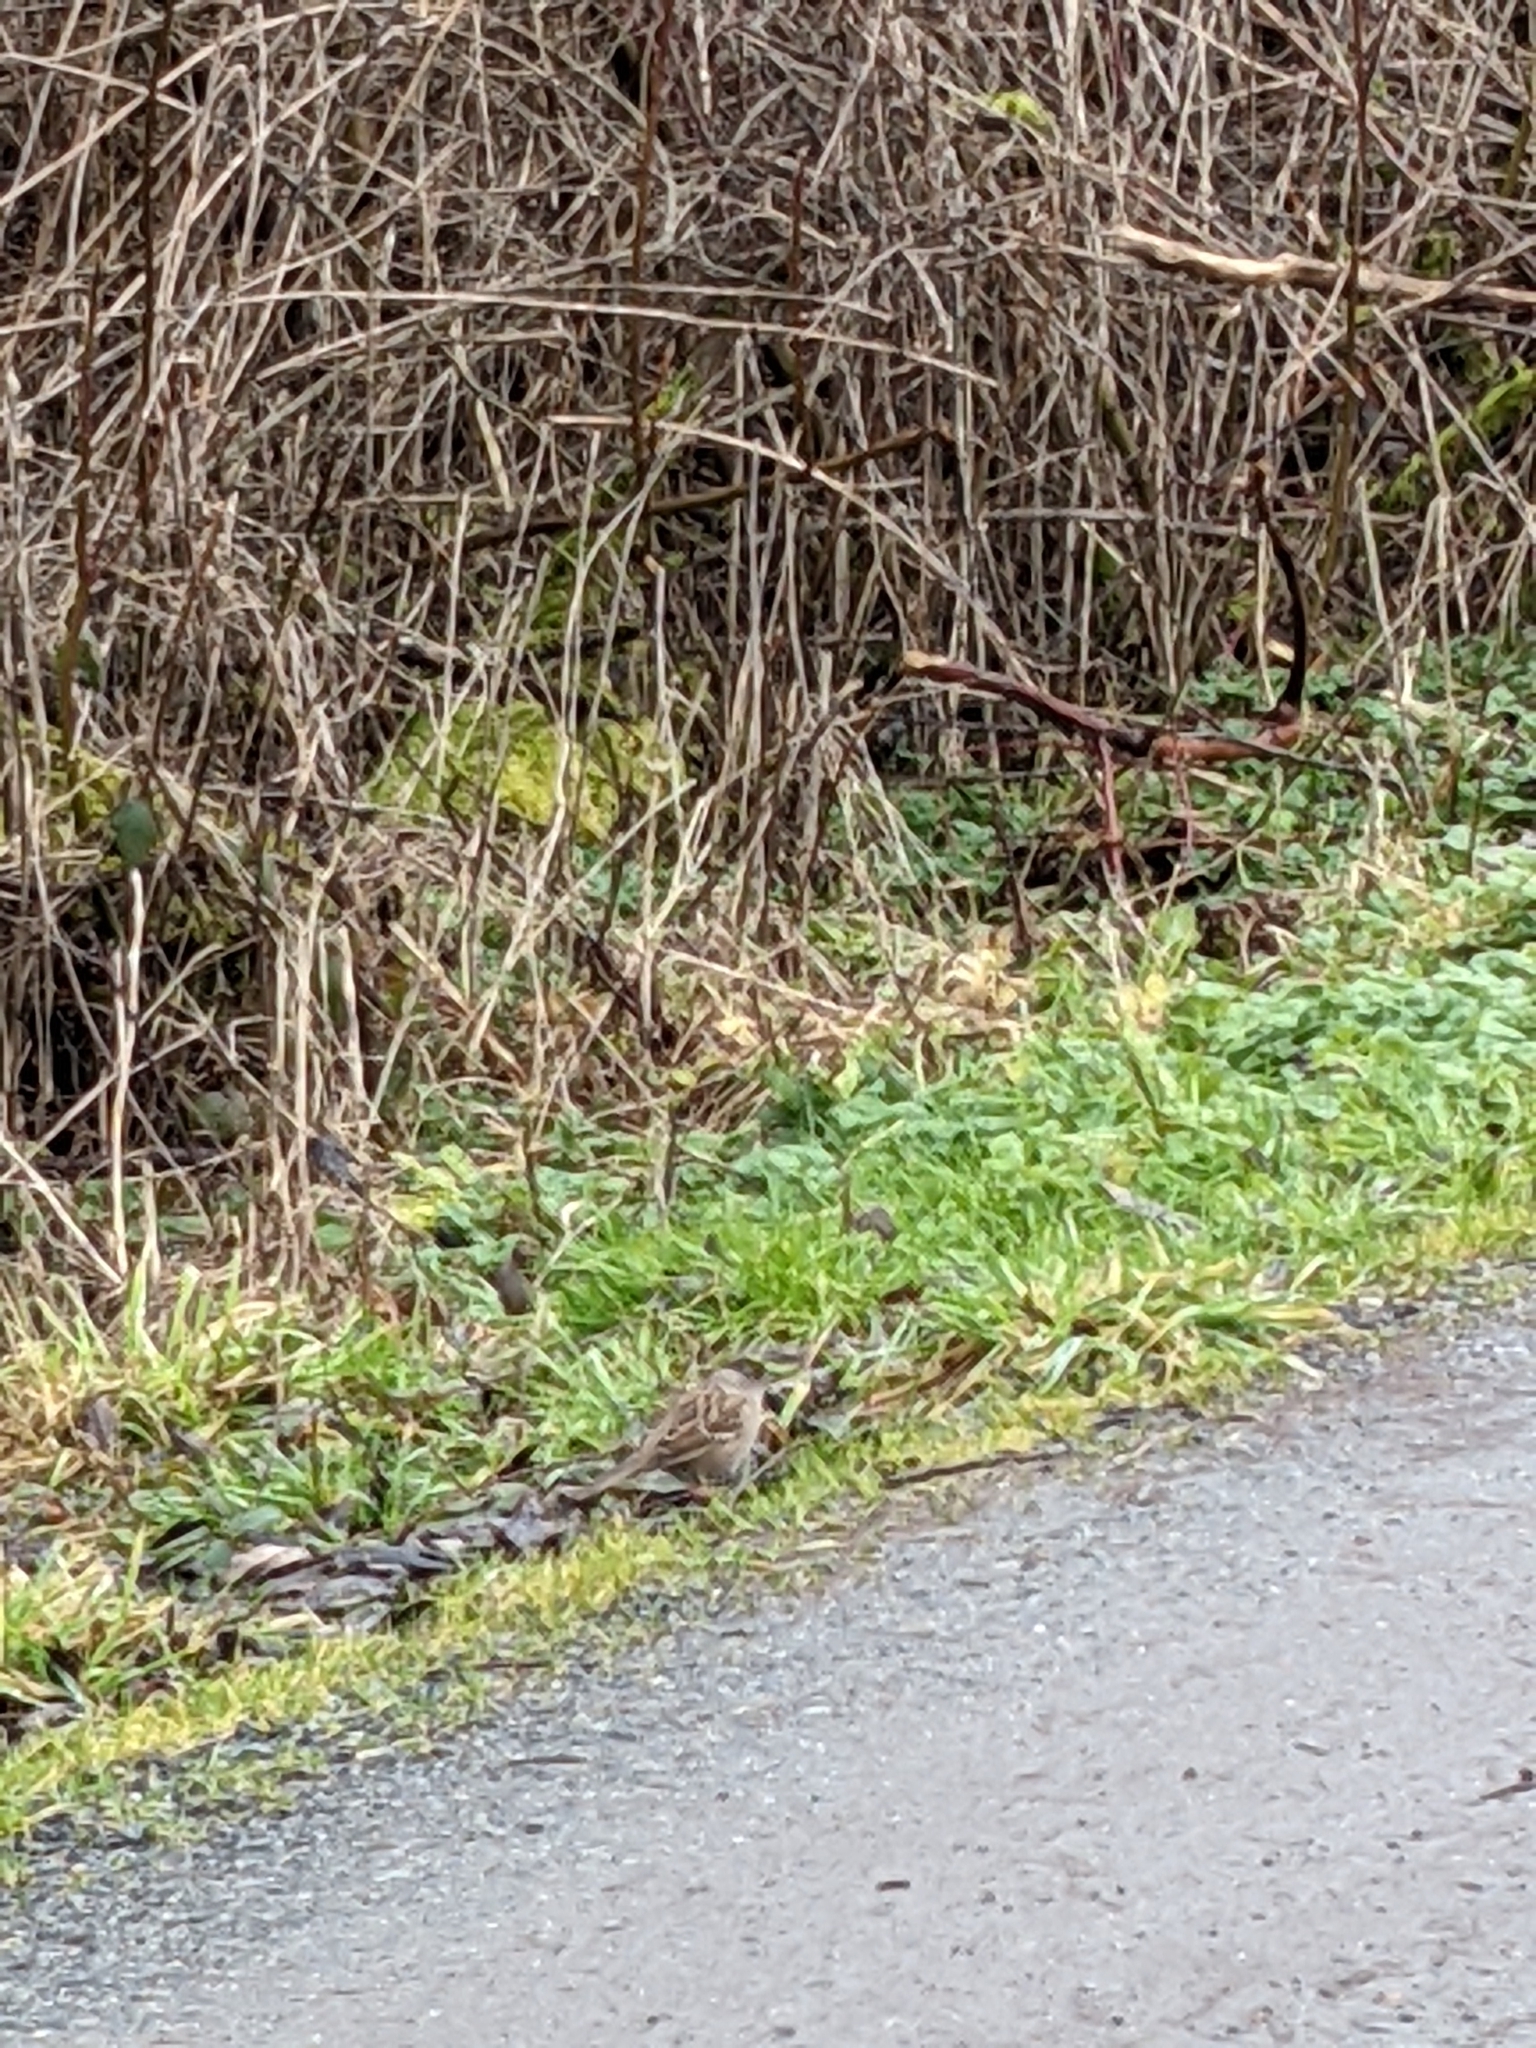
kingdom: Animalia
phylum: Chordata
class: Aves
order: Passeriformes
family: Passerellidae
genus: Zonotrichia
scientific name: Zonotrichia atricapilla
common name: Golden-crowned sparrow
